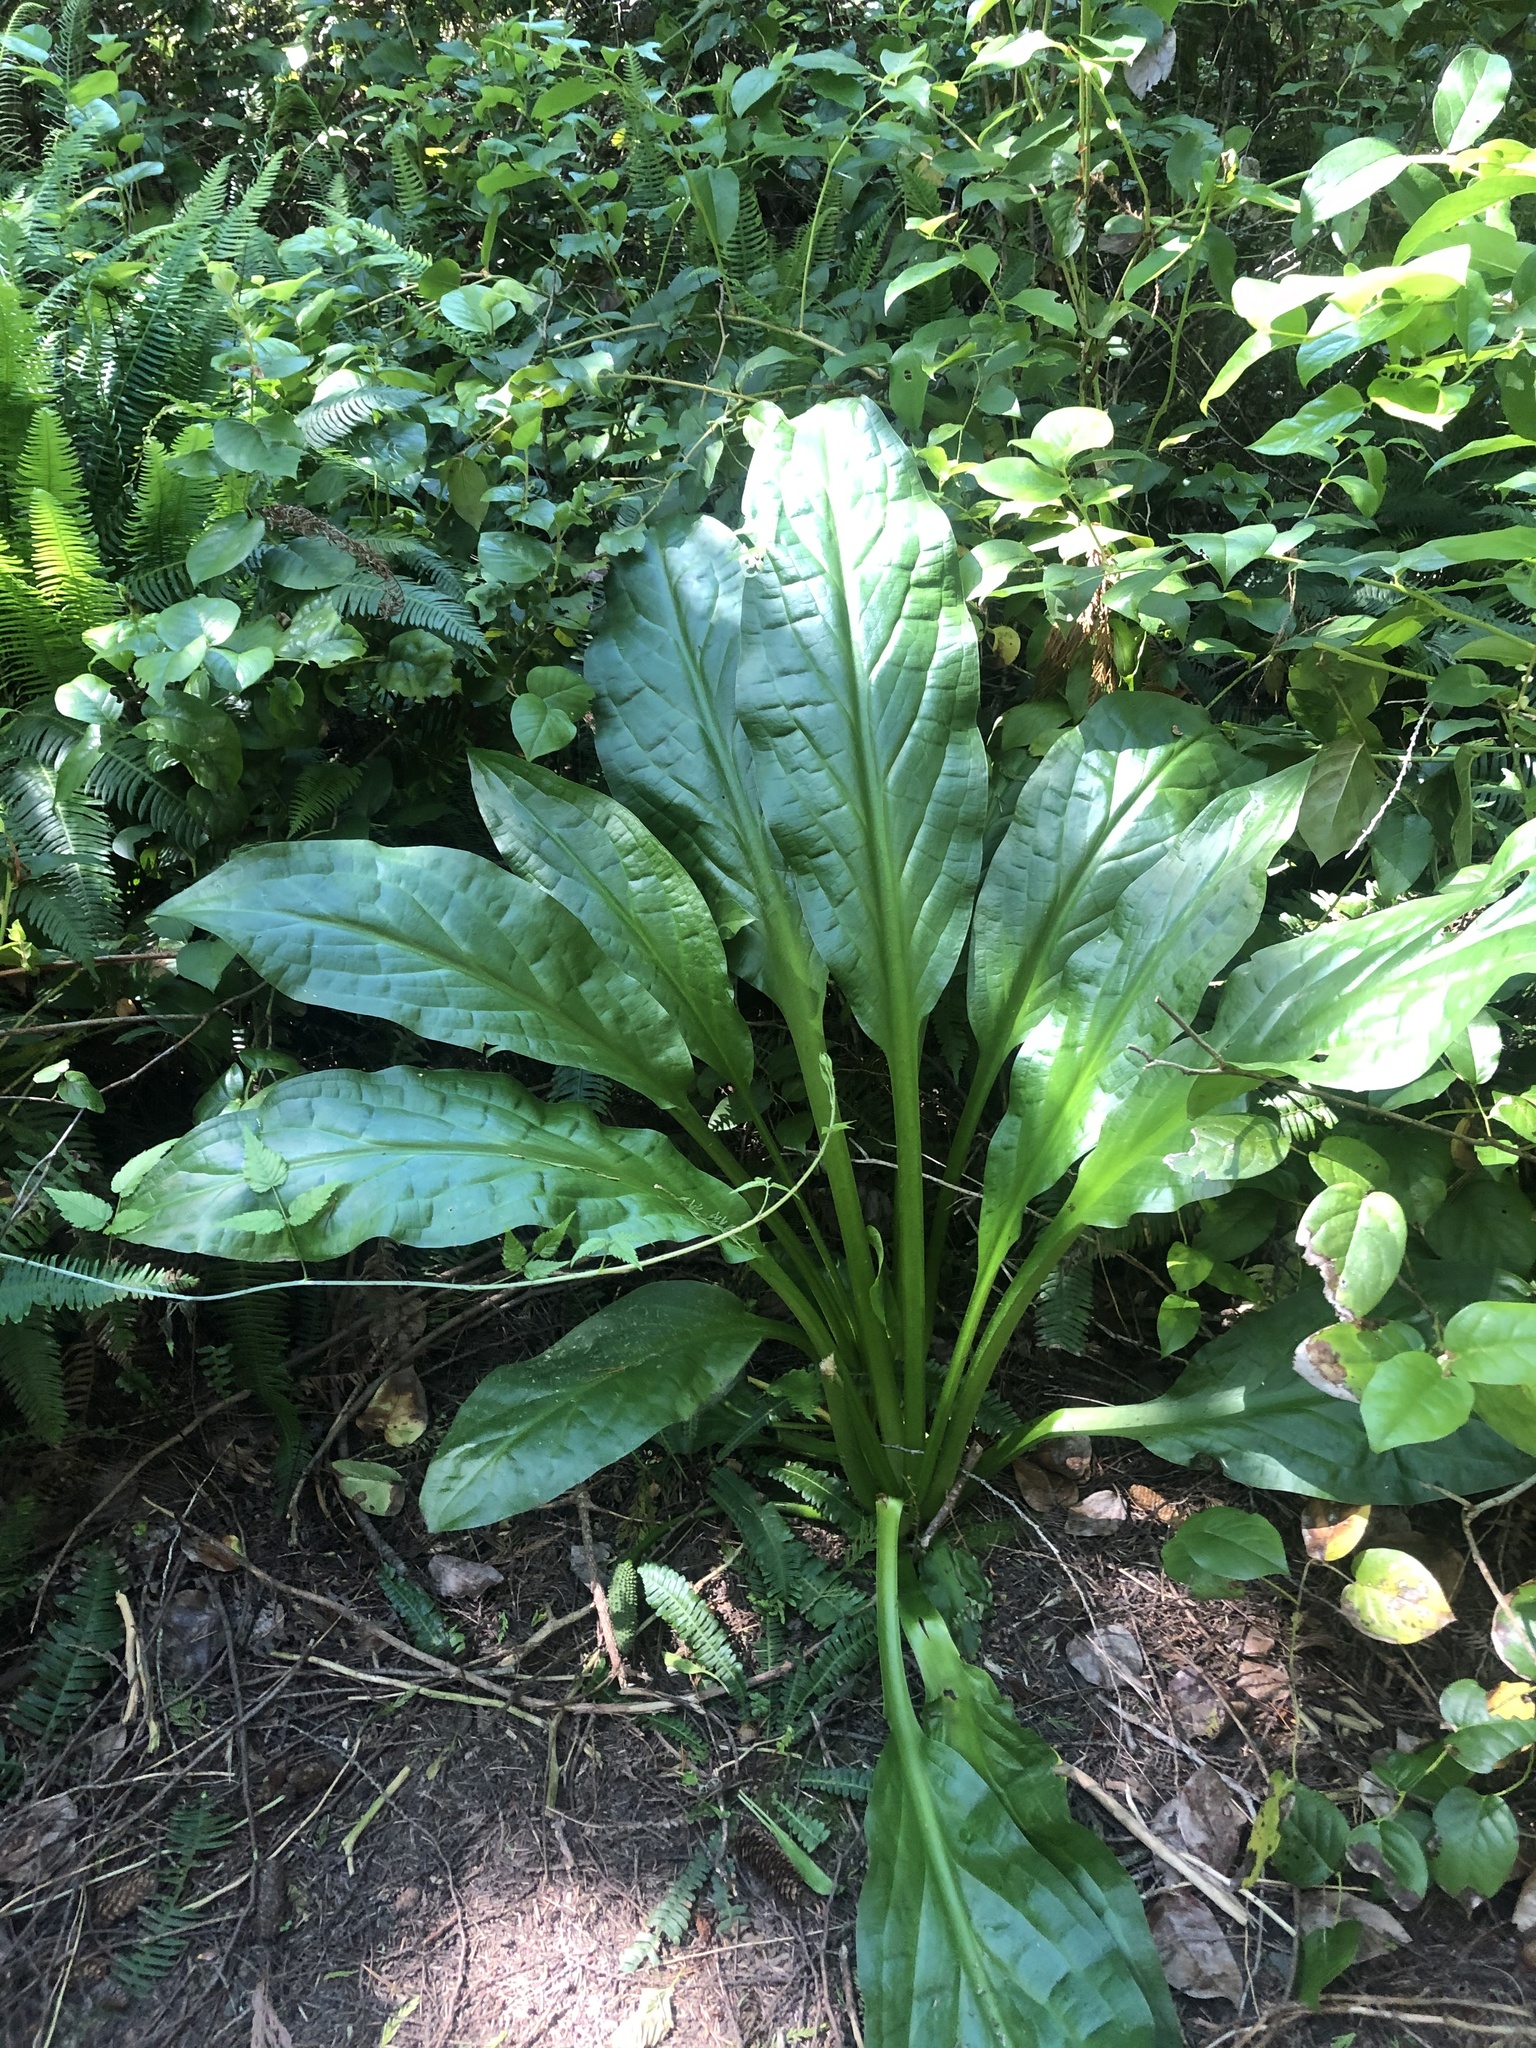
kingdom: Plantae
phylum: Tracheophyta
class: Liliopsida
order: Alismatales
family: Araceae
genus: Lysichiton
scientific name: Lysichiton americanus
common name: American skunk cabbage
